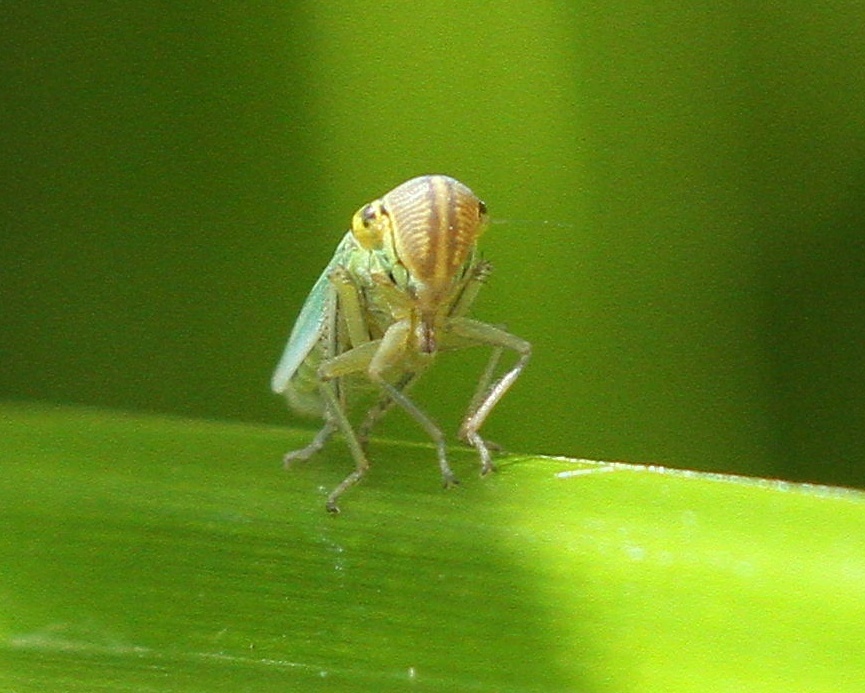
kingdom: Animalia
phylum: Arthropoda
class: Insecta
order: Hemiptera
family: Cicadellidae
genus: Cicadella
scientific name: Cicadella viridis
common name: Leafhopper
